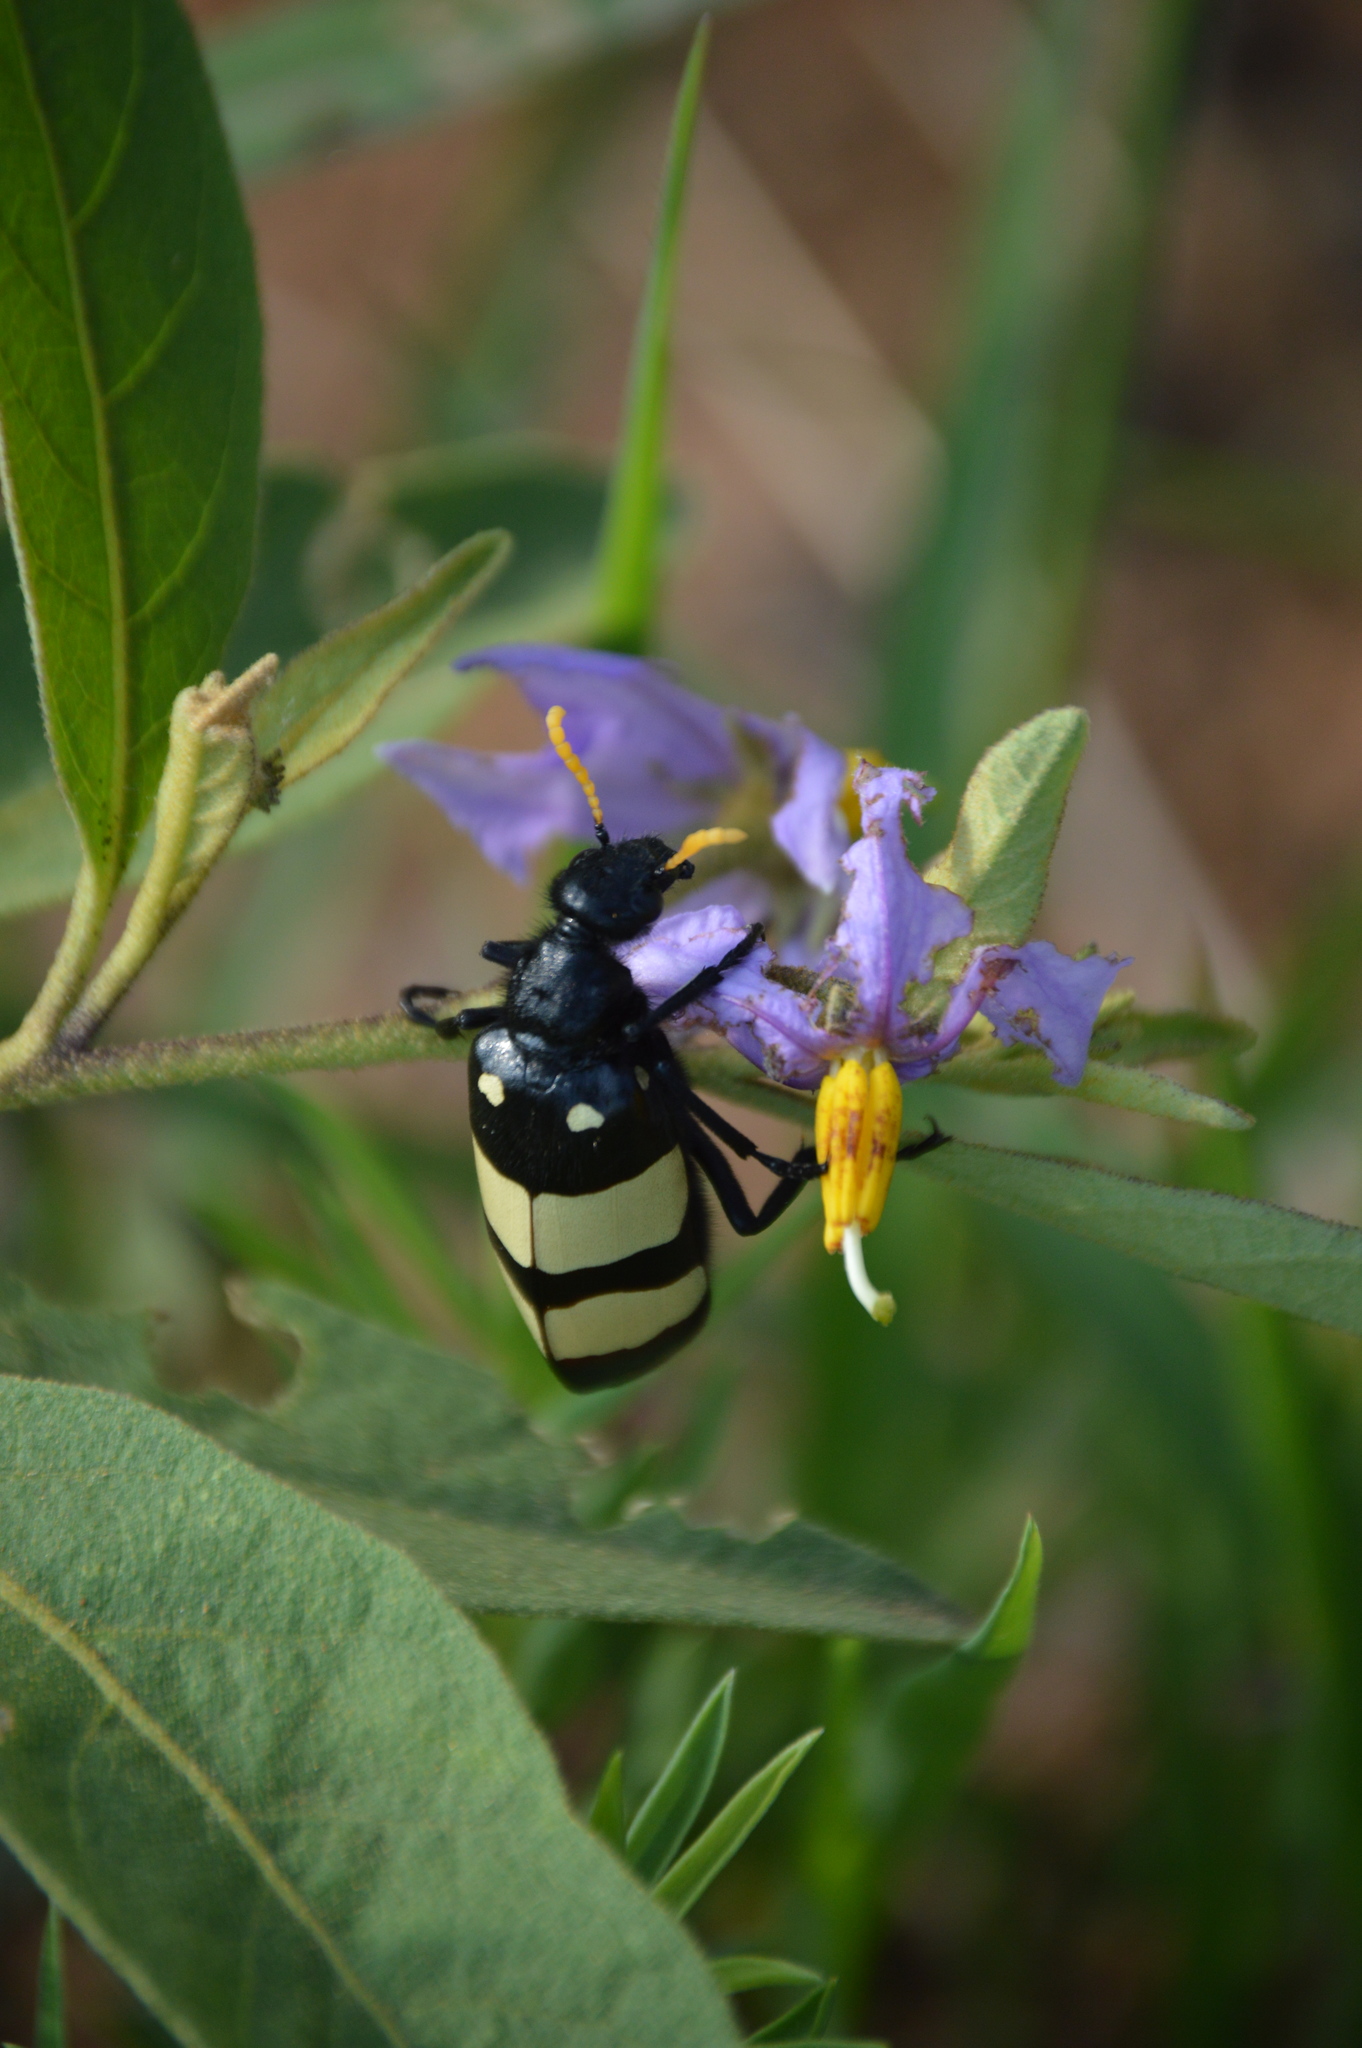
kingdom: Animalia
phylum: Arthropoda
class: Insecta
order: Coleoptera
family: Meloidae
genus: Hycleus
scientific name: Hycleus
